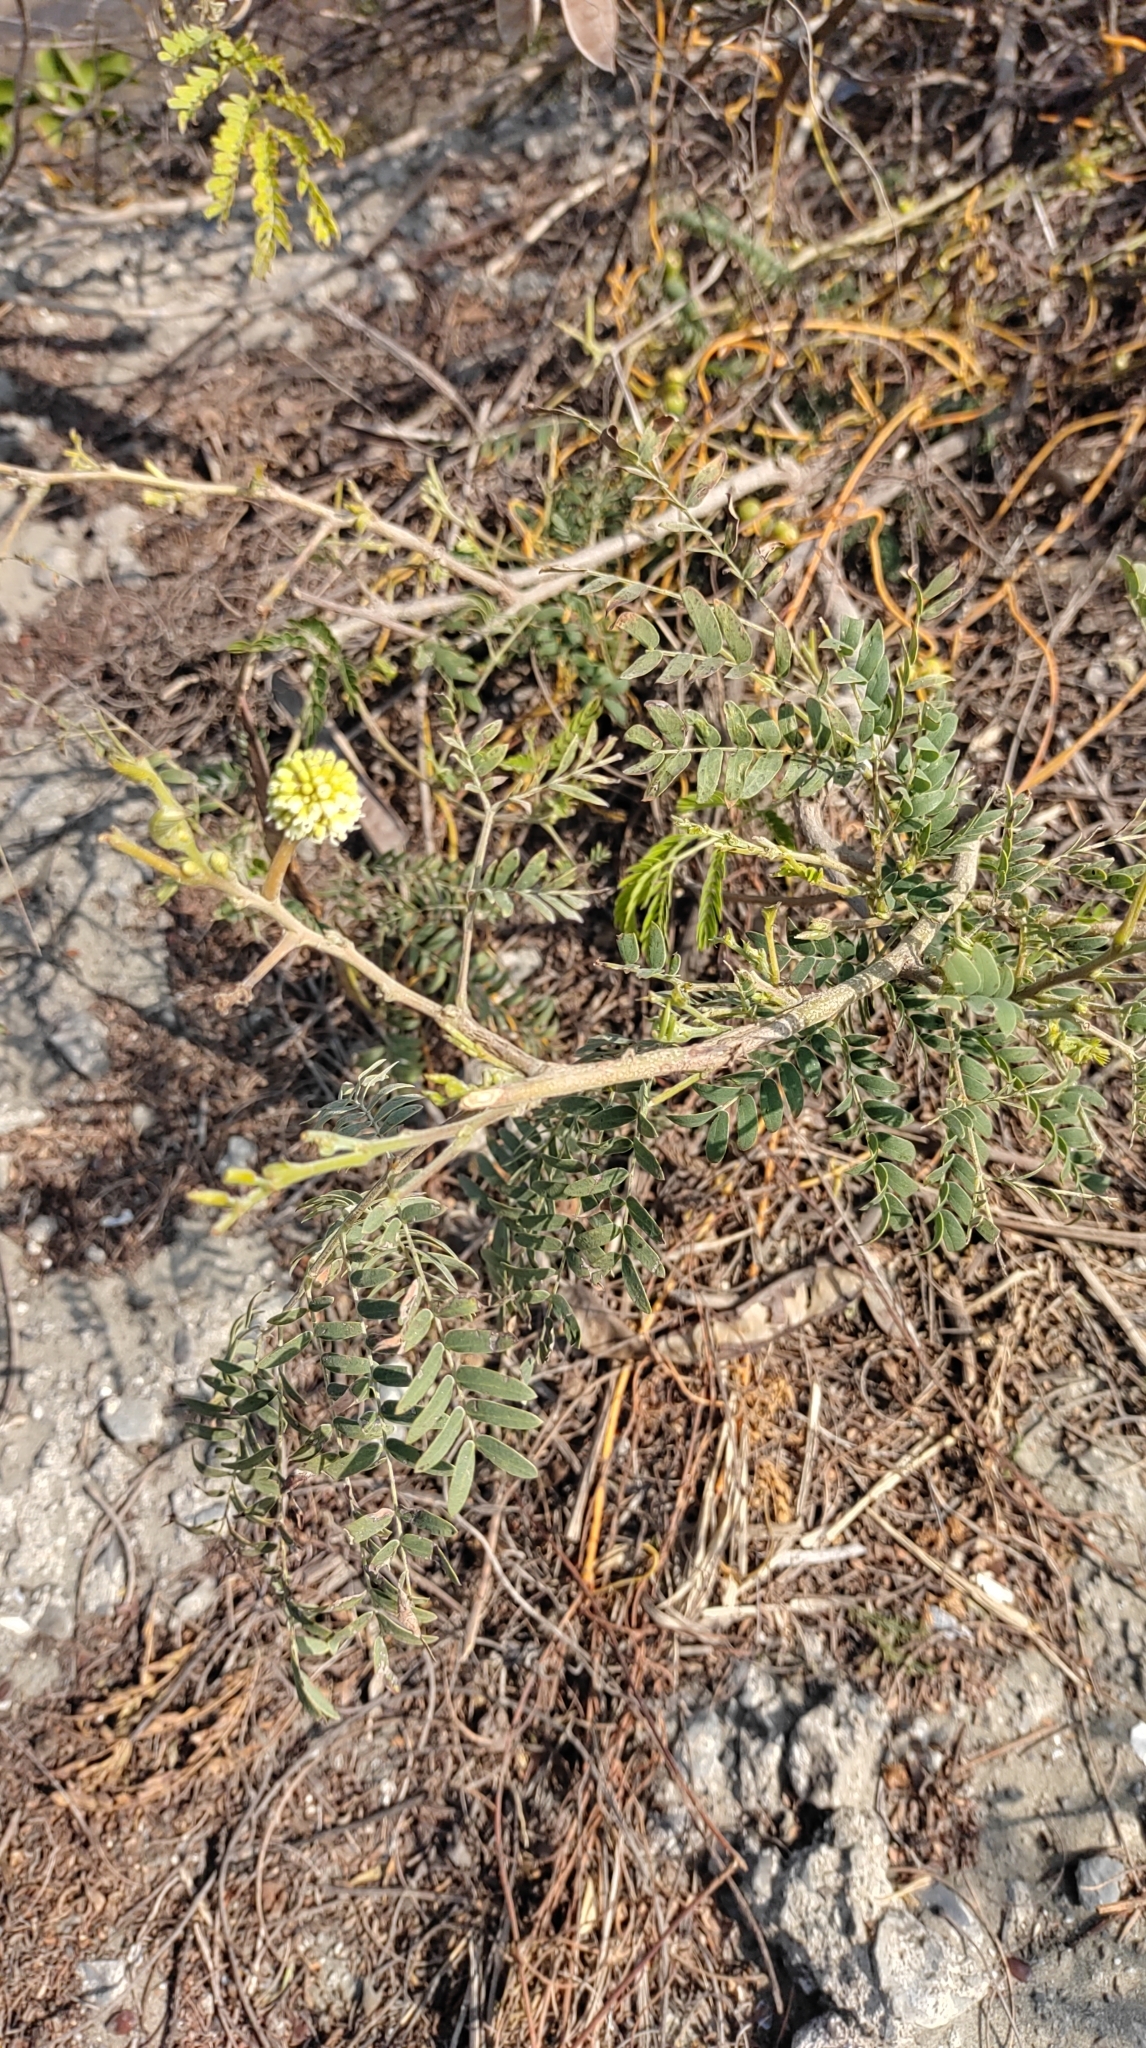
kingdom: Plantae
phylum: Tracheophyta
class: Magnoliopsida
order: Fabales
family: Fabaceae
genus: Leucaena
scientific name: Leucaena leucocephala
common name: White leadtree
